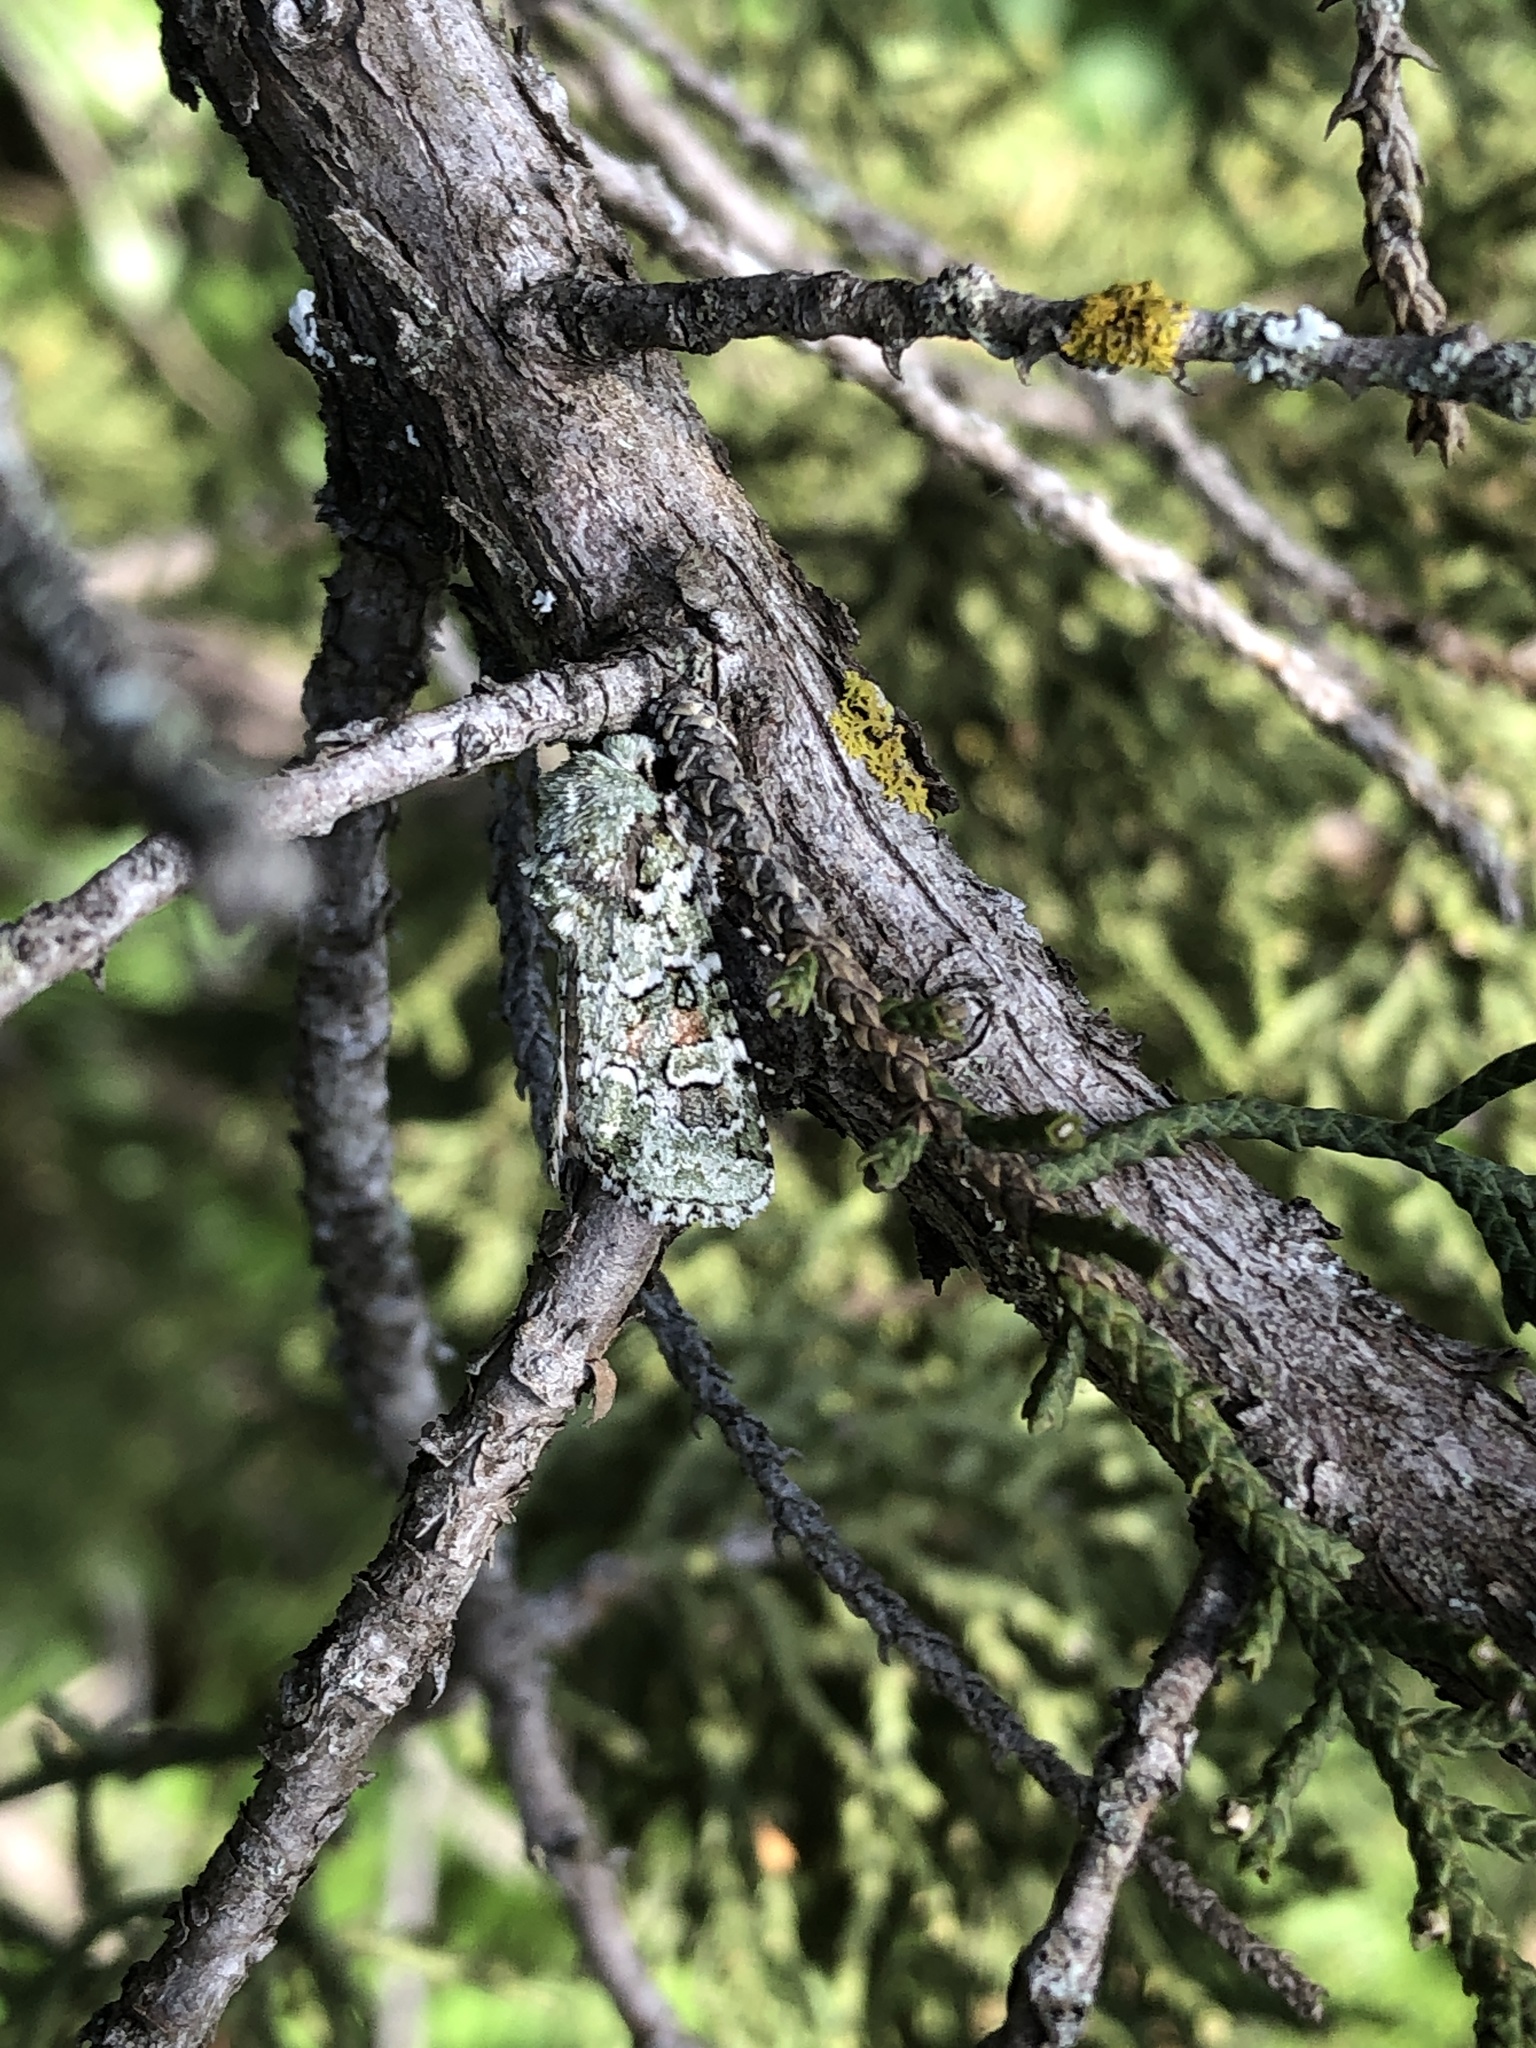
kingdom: Animalia
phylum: Arthropoda
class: Insecta
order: Lepidoptera
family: Noctuidae
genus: Lacinipolia
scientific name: Lacinipolia laudabilis
